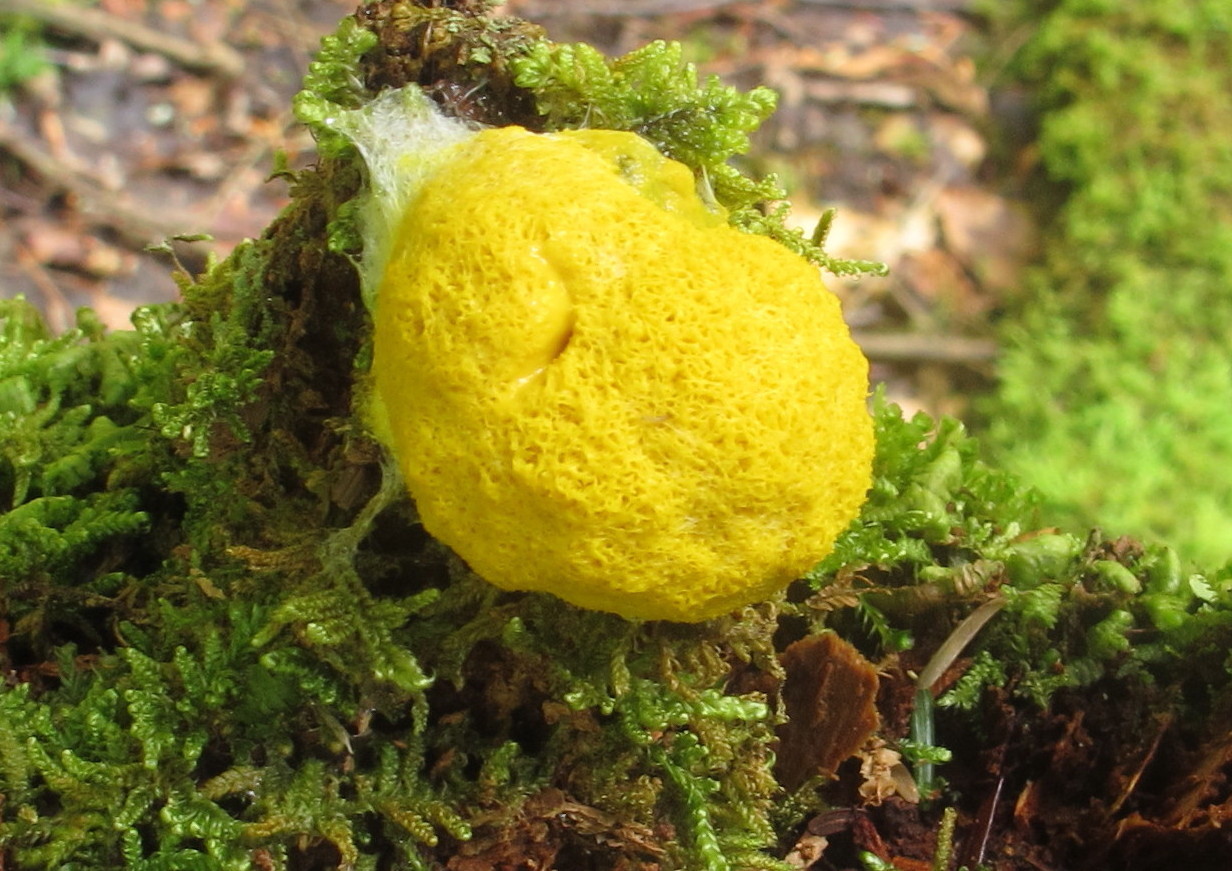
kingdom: Protozoa
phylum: Mycetozoa
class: Myxomycetes
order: Physarales
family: Physaraceae
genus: Fuligo
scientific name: Fuligo septica
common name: Dog vomit slime mold
